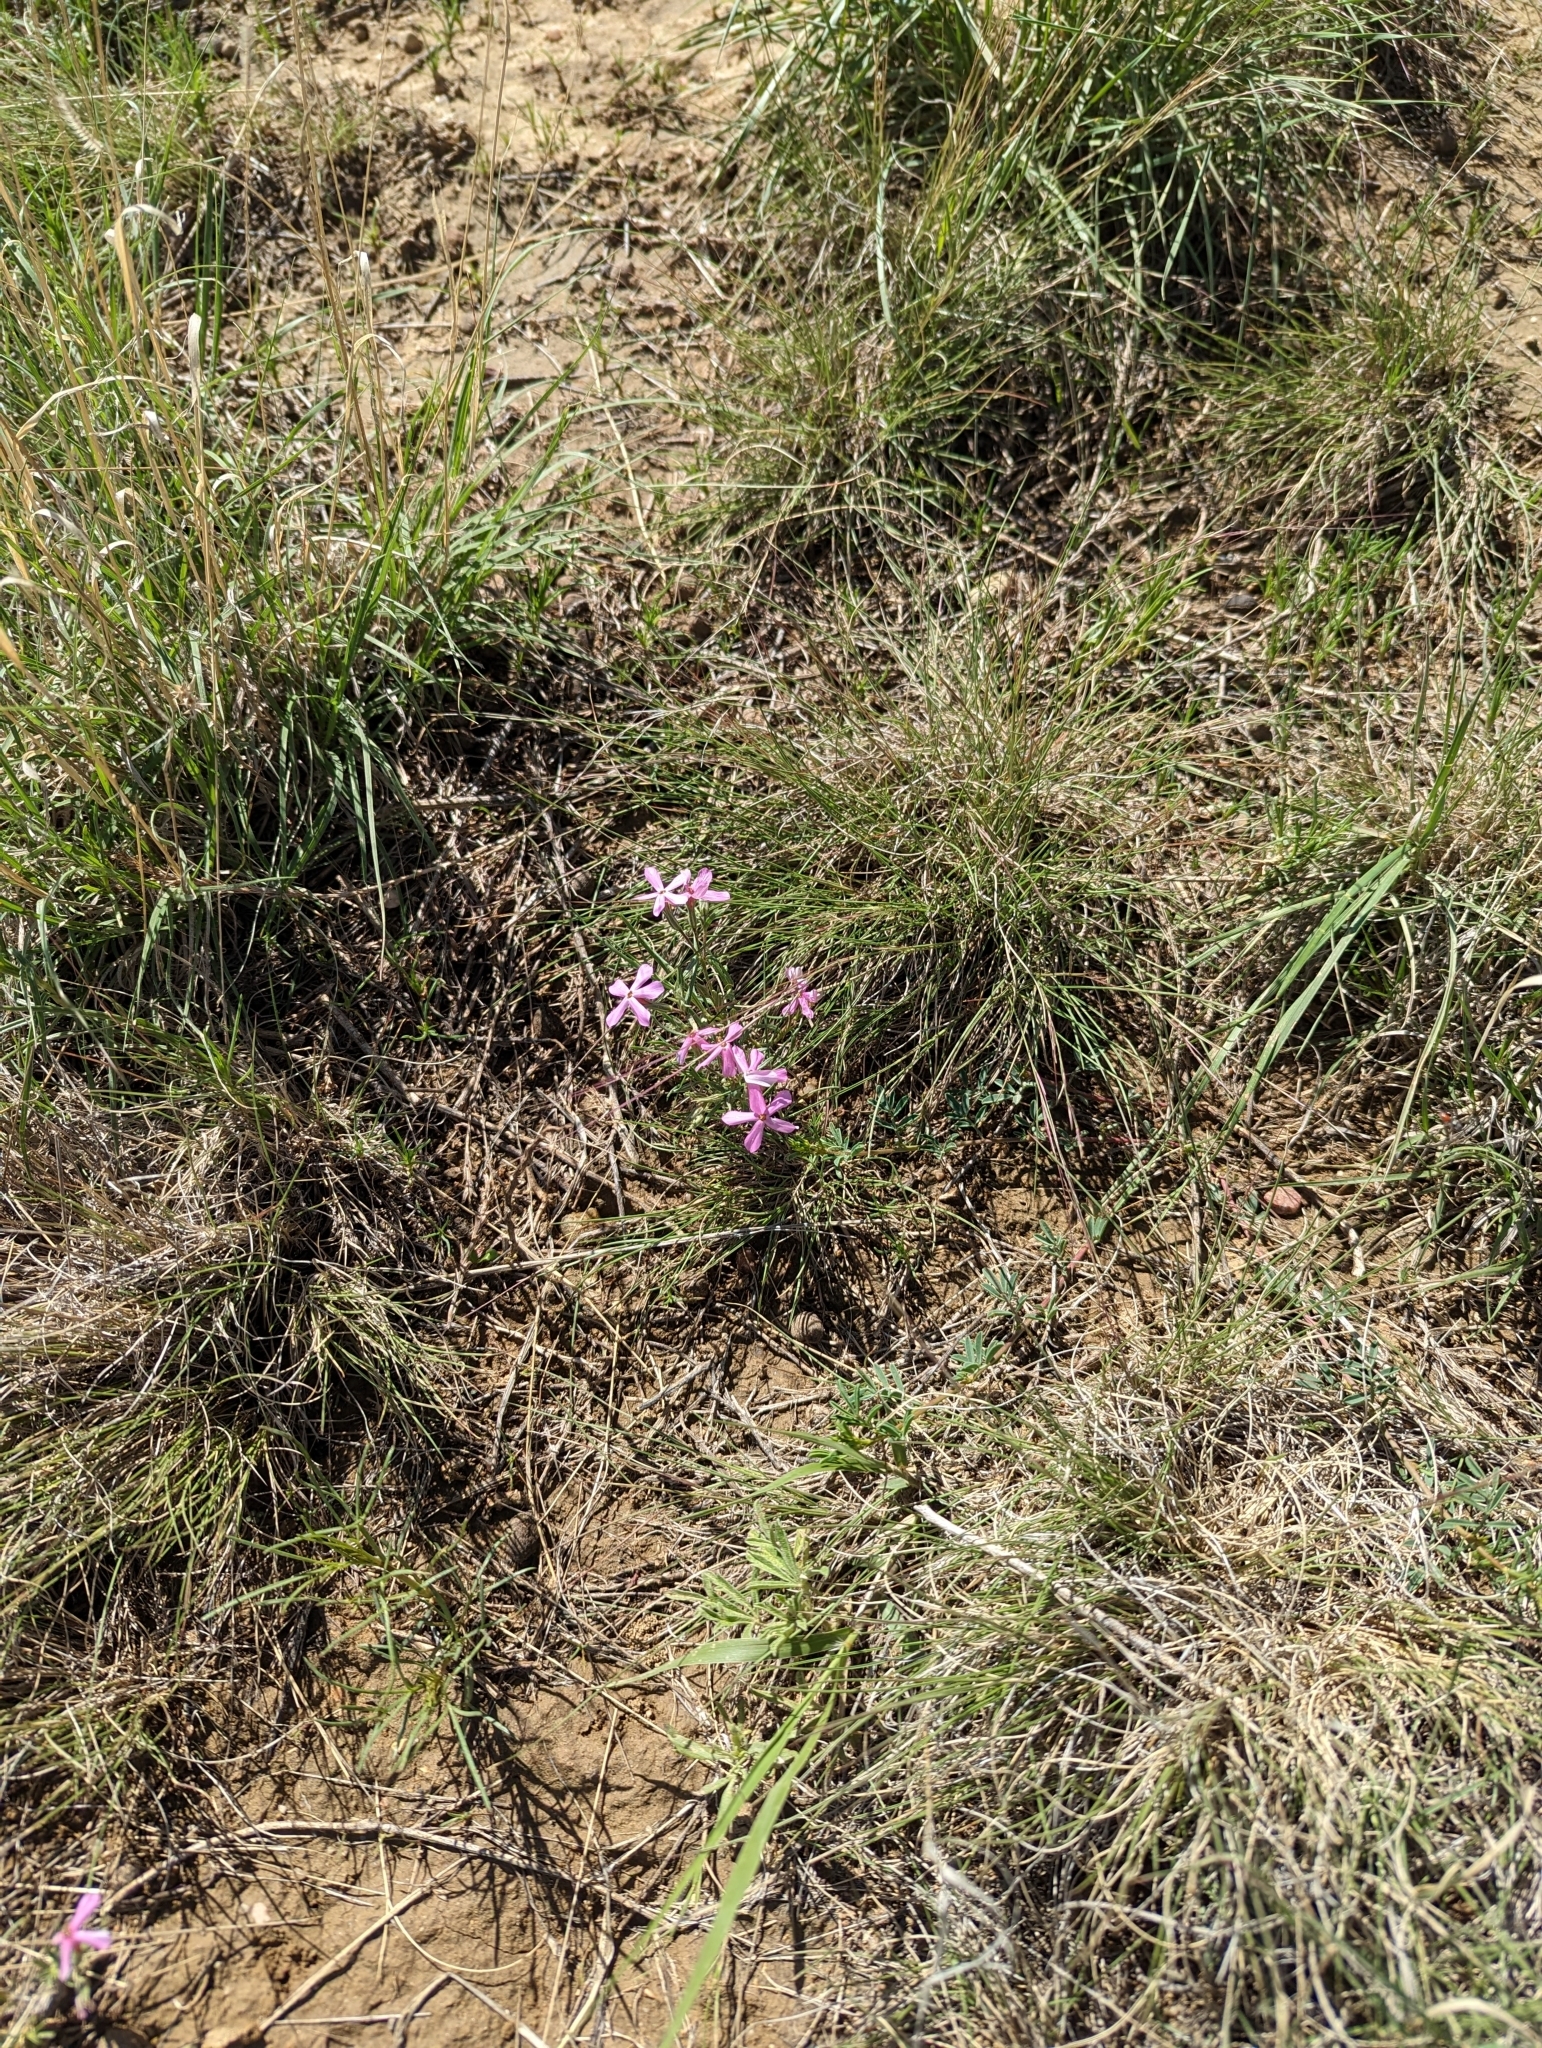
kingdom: Plantae
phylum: Tracheophyta
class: Magnoliopsida
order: Ericales
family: Polemoniaceae
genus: Phlox
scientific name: Phlox longifolia
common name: Longleaf phlox
